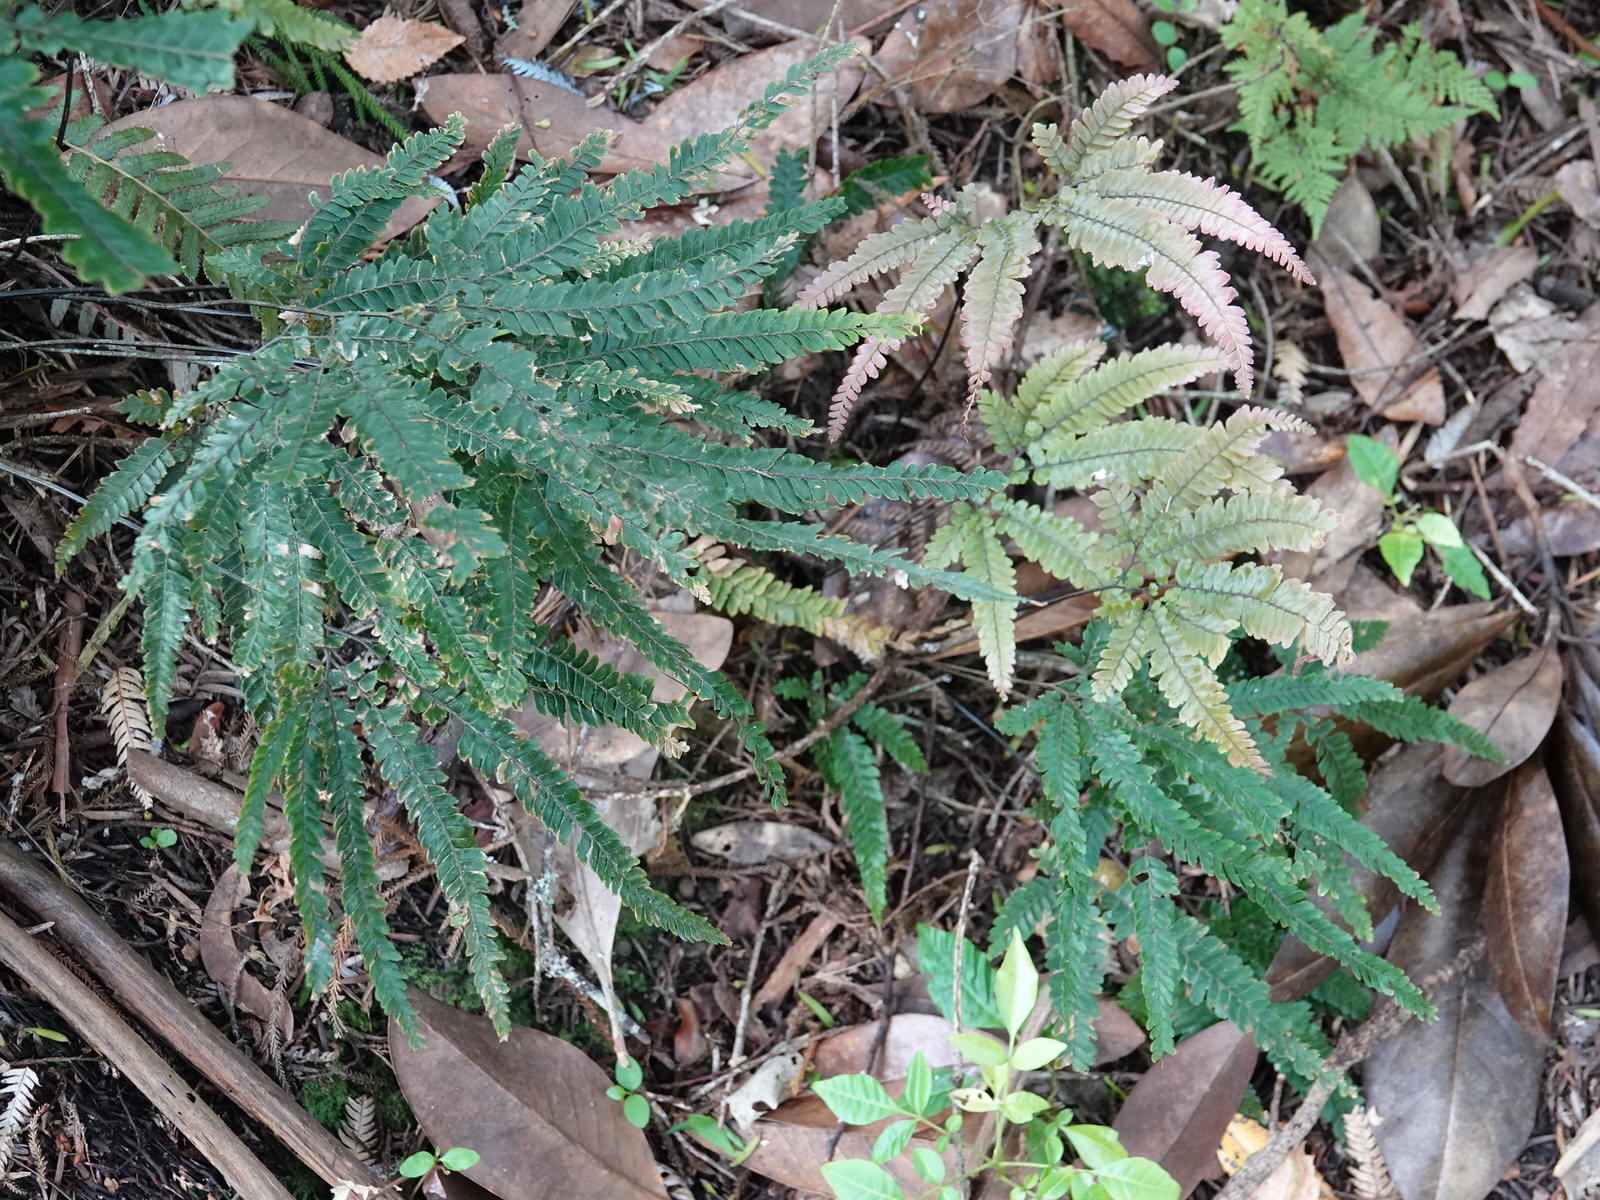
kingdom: Plantae
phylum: Tracheophyta
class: Polypodiopsida
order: Polypodiales
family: Pteridaceae
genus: Adiantum
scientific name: Adiantum hispidulum
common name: Rough maidenhair
